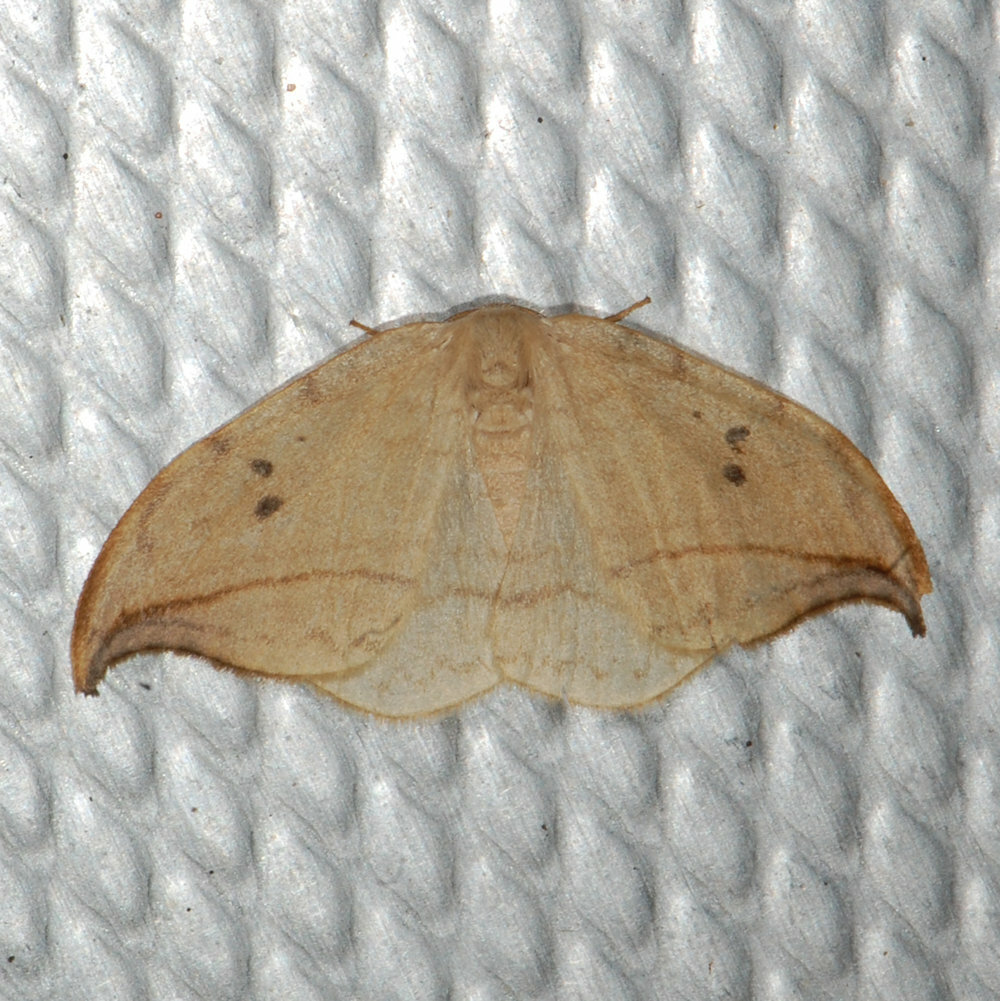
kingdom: Animalia
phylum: Arthropoda
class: Insecta
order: Lepidoptera
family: Drepanidae
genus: Drepana
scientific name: Drepana arcuata
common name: Arched hooktip moth
